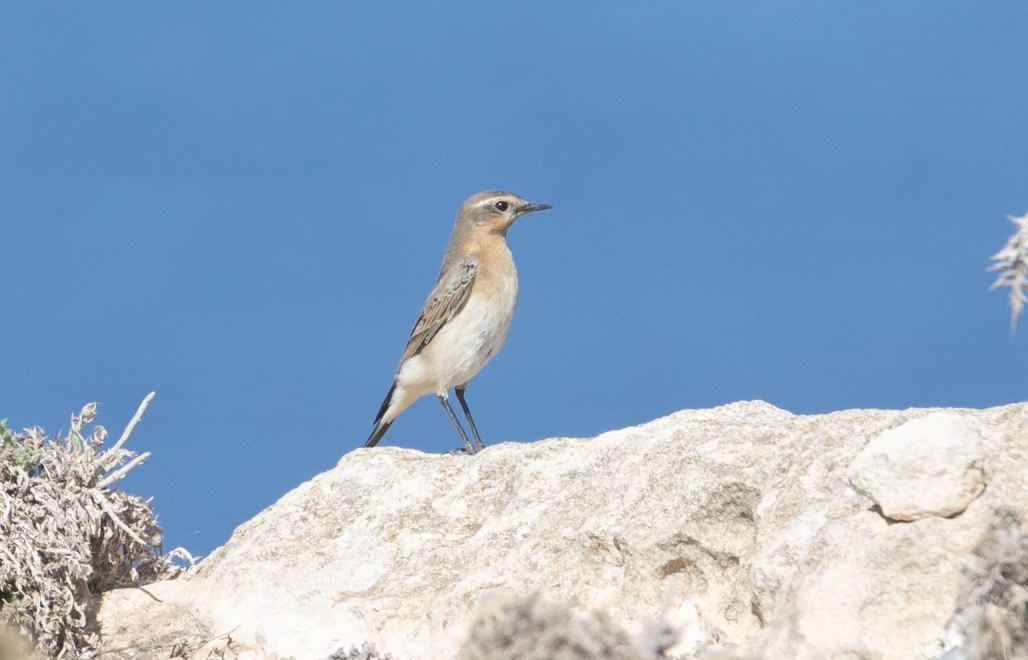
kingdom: Animalia
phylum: Chordata
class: Aves
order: Passeriformes
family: Muscicapidae
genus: Oenanthe
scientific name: Oenanthe oenanthe
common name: Northern wheatear
